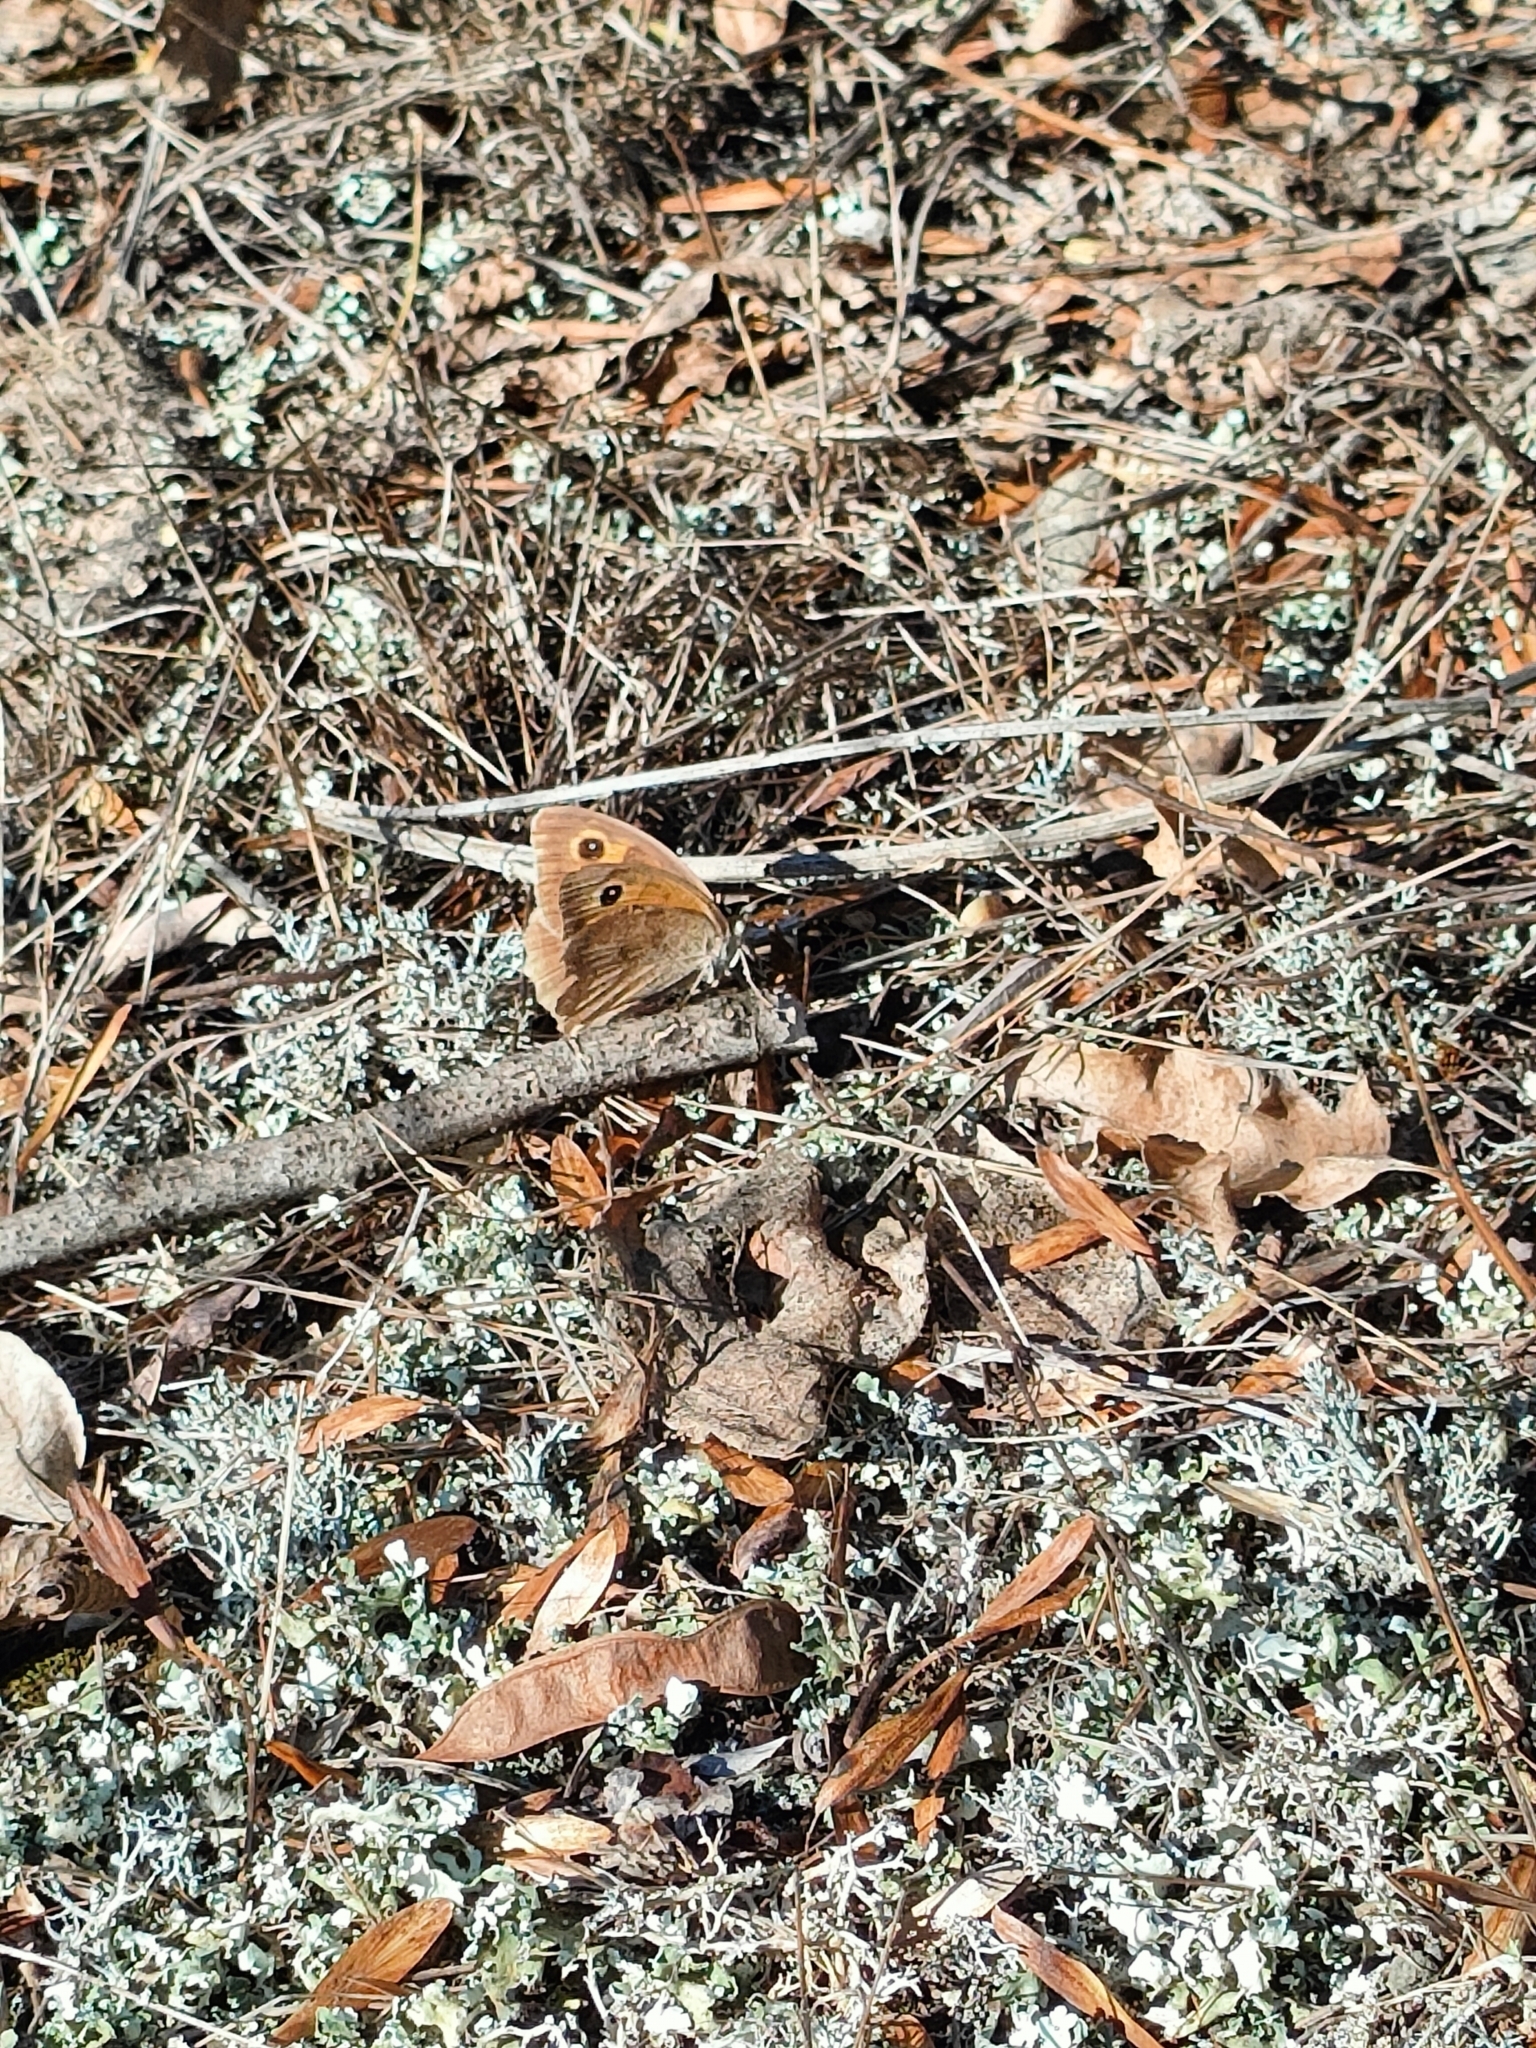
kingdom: Animalia
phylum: Arthropoda
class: Insecta
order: Lepidoptera
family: Nymphalidae
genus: Maniola
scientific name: Maniola jurtina
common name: Meadow brown
